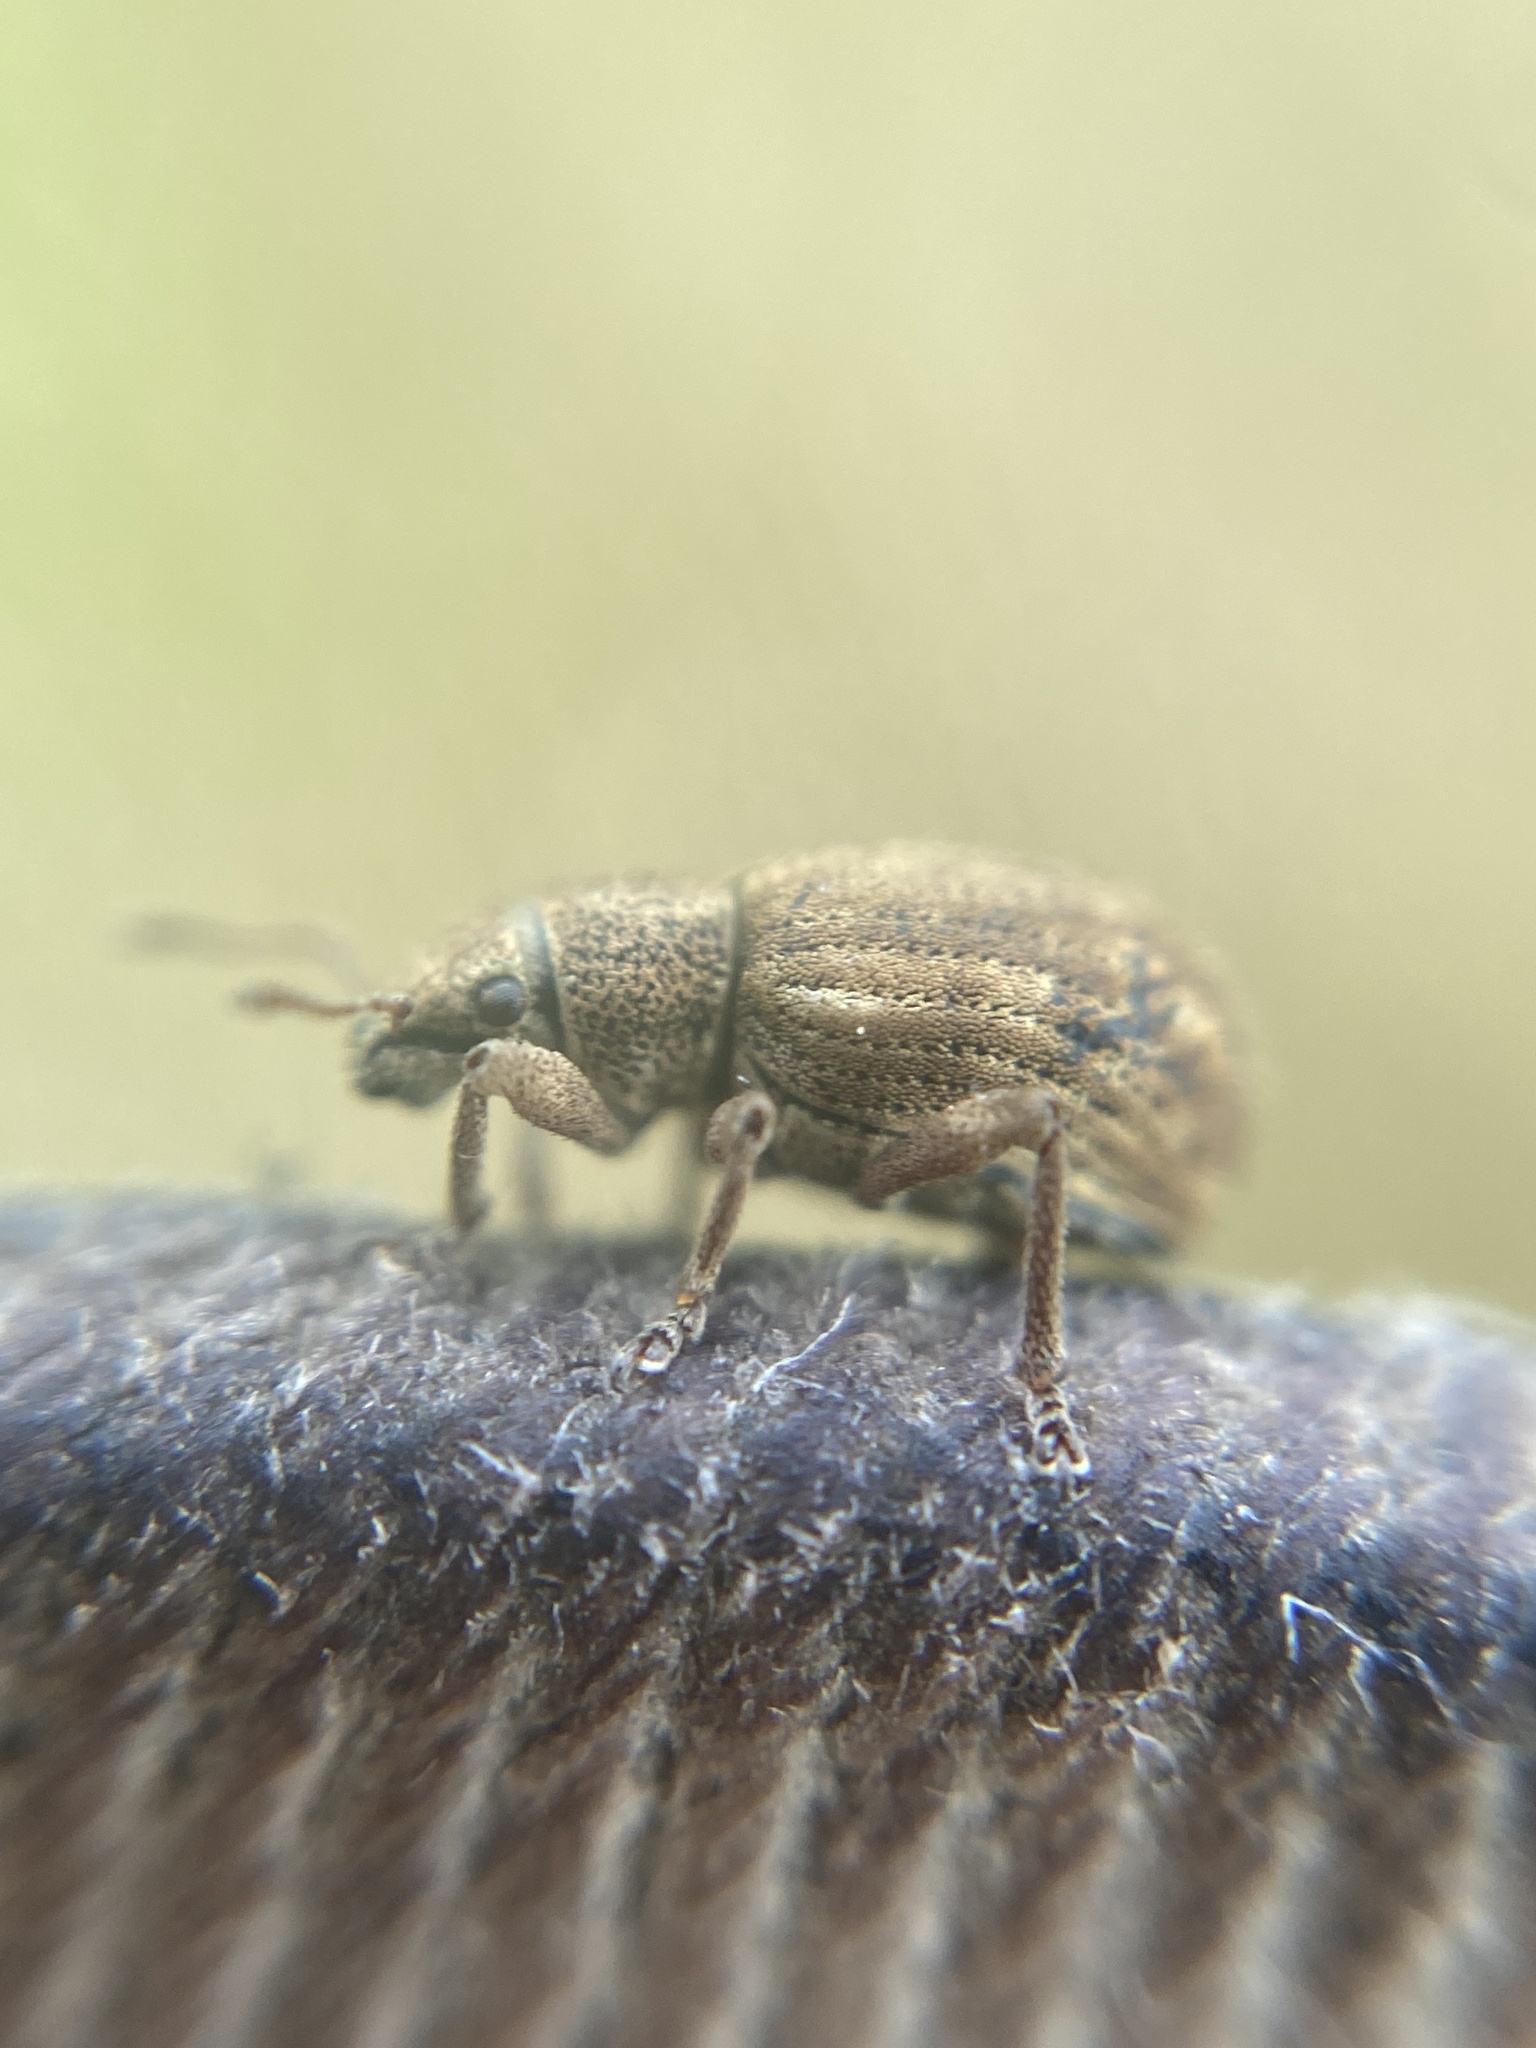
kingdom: Animalia
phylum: Arthropoda
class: Insecta
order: Coleoptera
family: Curculionidae
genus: Strophosoma
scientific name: Strophosoma melanogrammum
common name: Weevil
